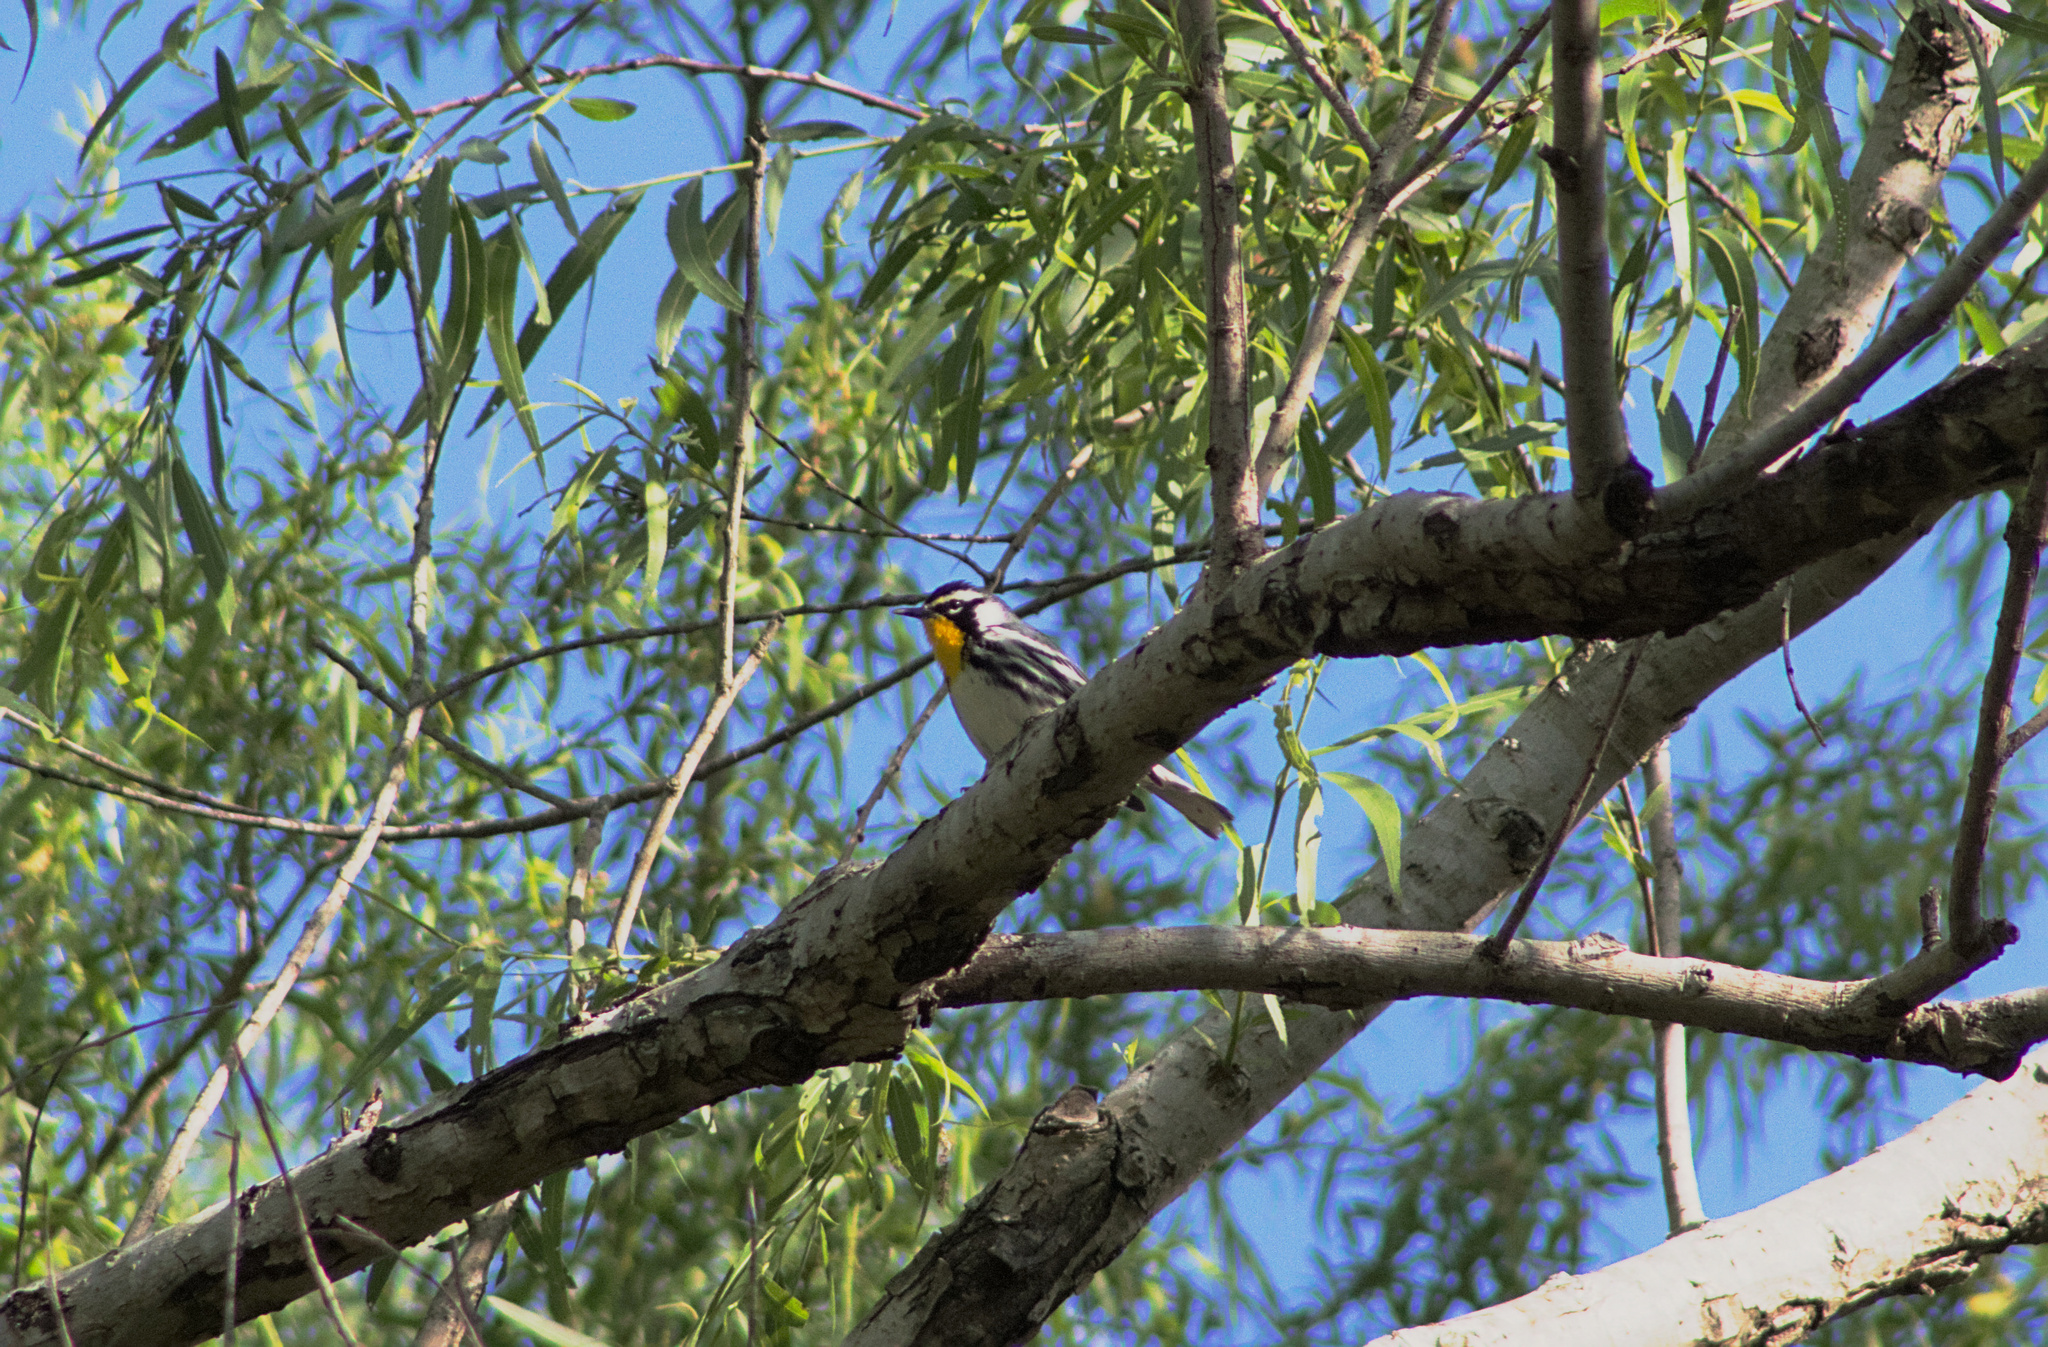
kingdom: Animalia
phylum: Chordata
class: Aves
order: Passeriformes
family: Parulidae
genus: Setophaga
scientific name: Setophaga dominica
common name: Yellow-throated warbler
